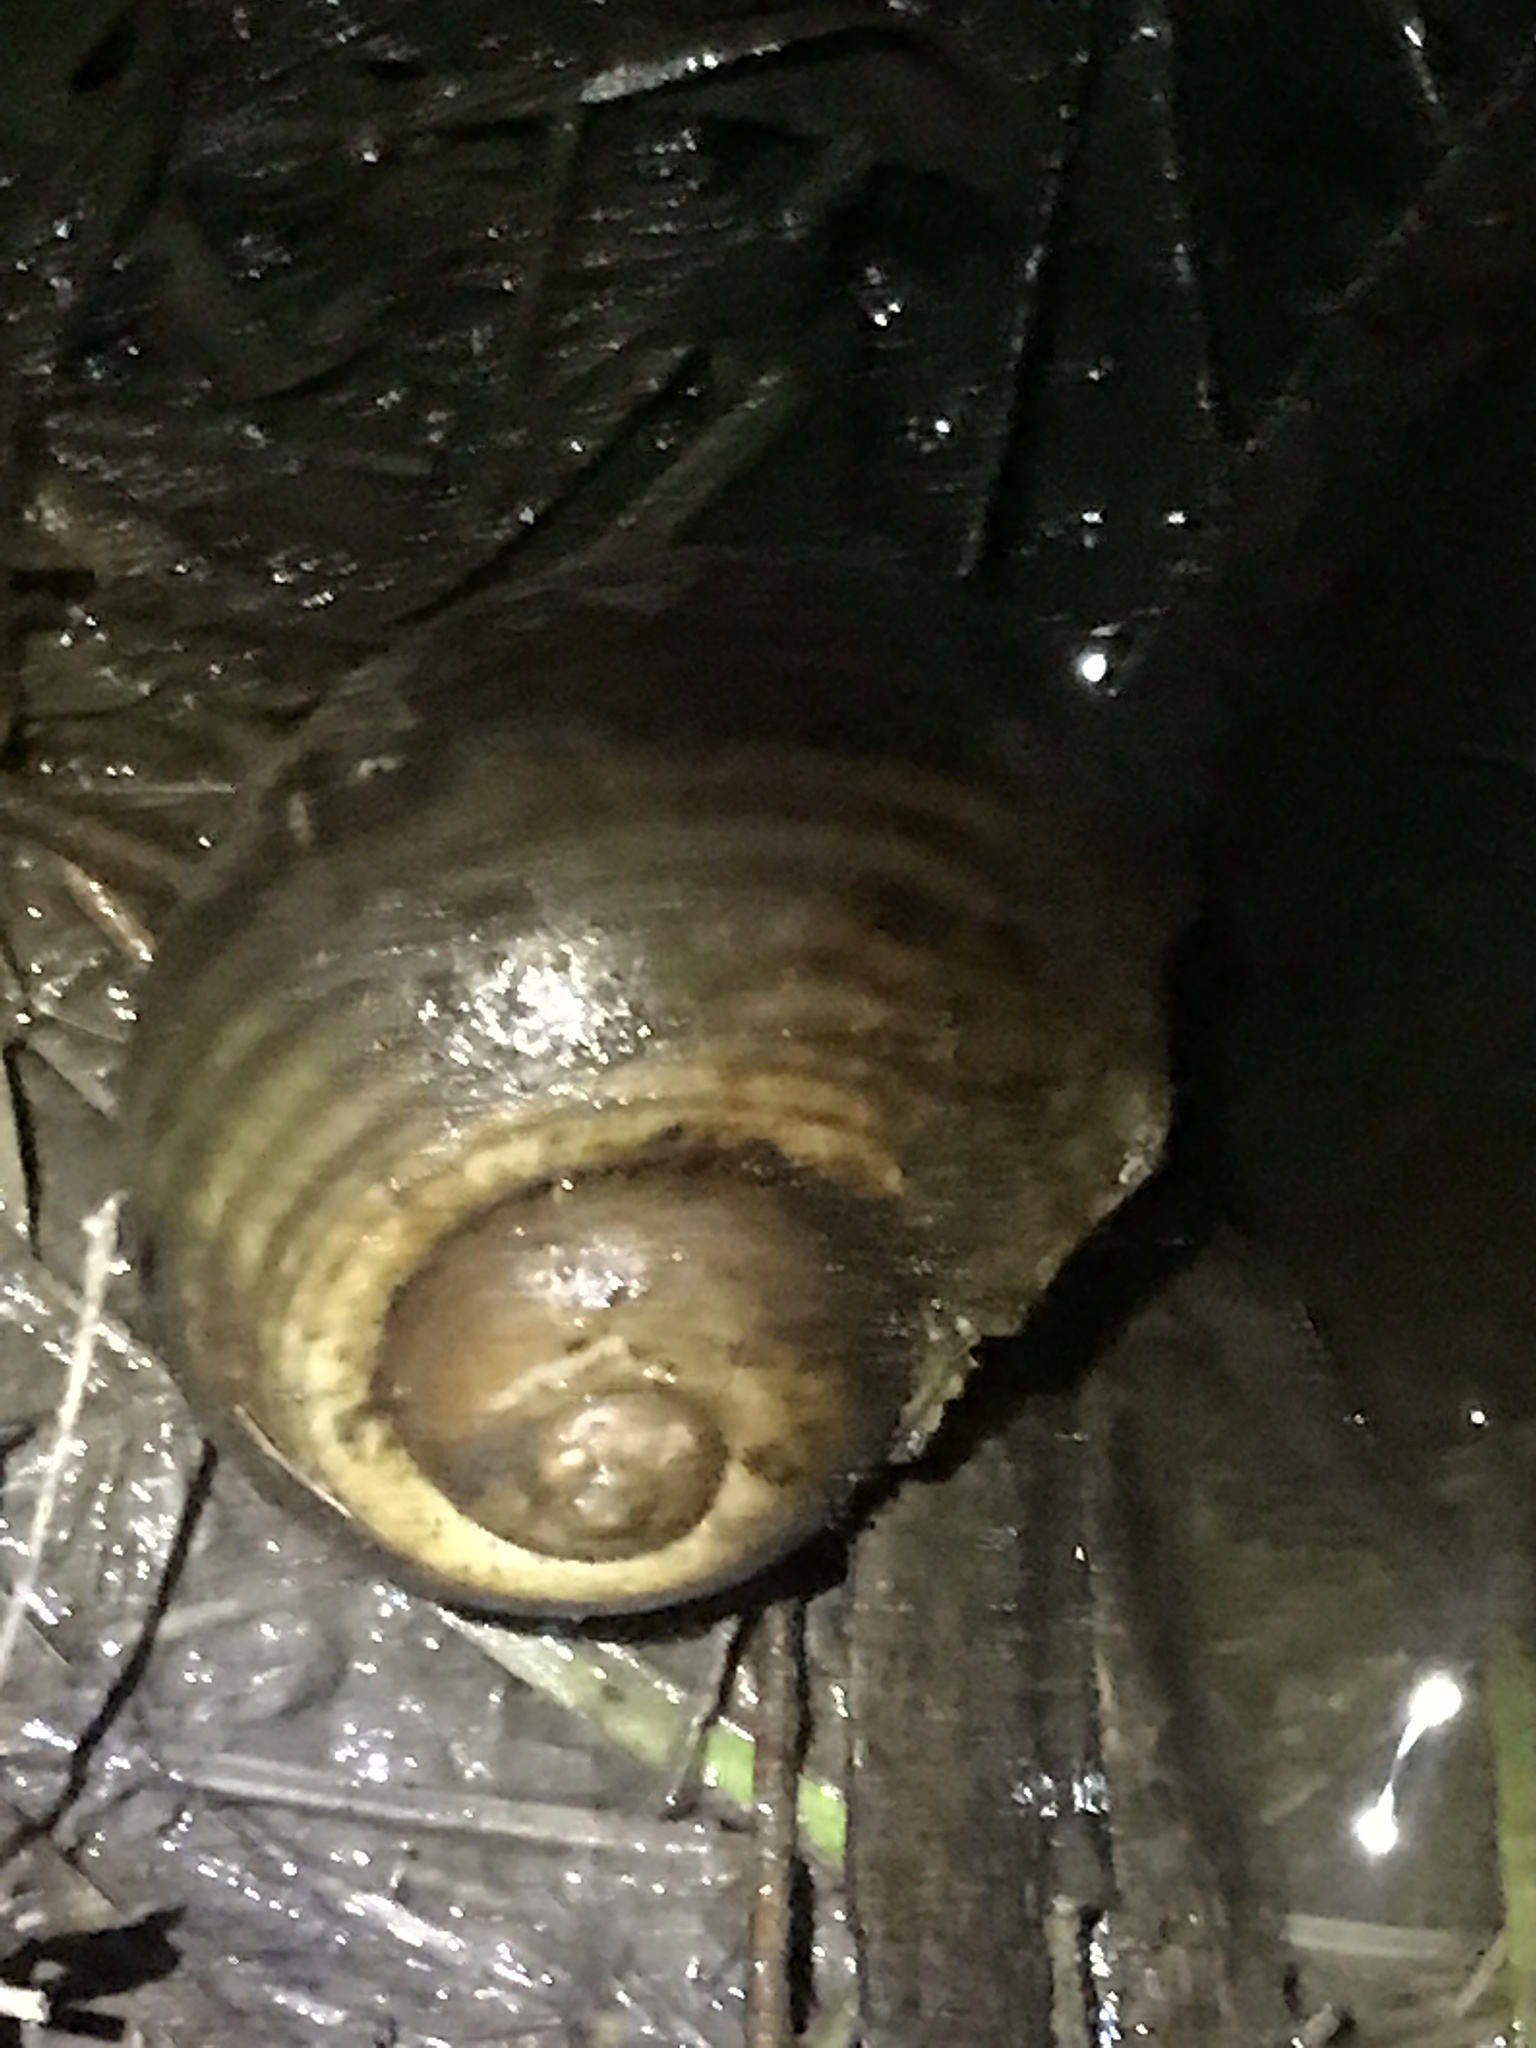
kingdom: Animalia
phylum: Mollusca
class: Gastropoda
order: Architaenioglossa
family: Ampullariidae
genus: Pomacea
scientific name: Pomacea canaliculata
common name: Channeled applesnail
